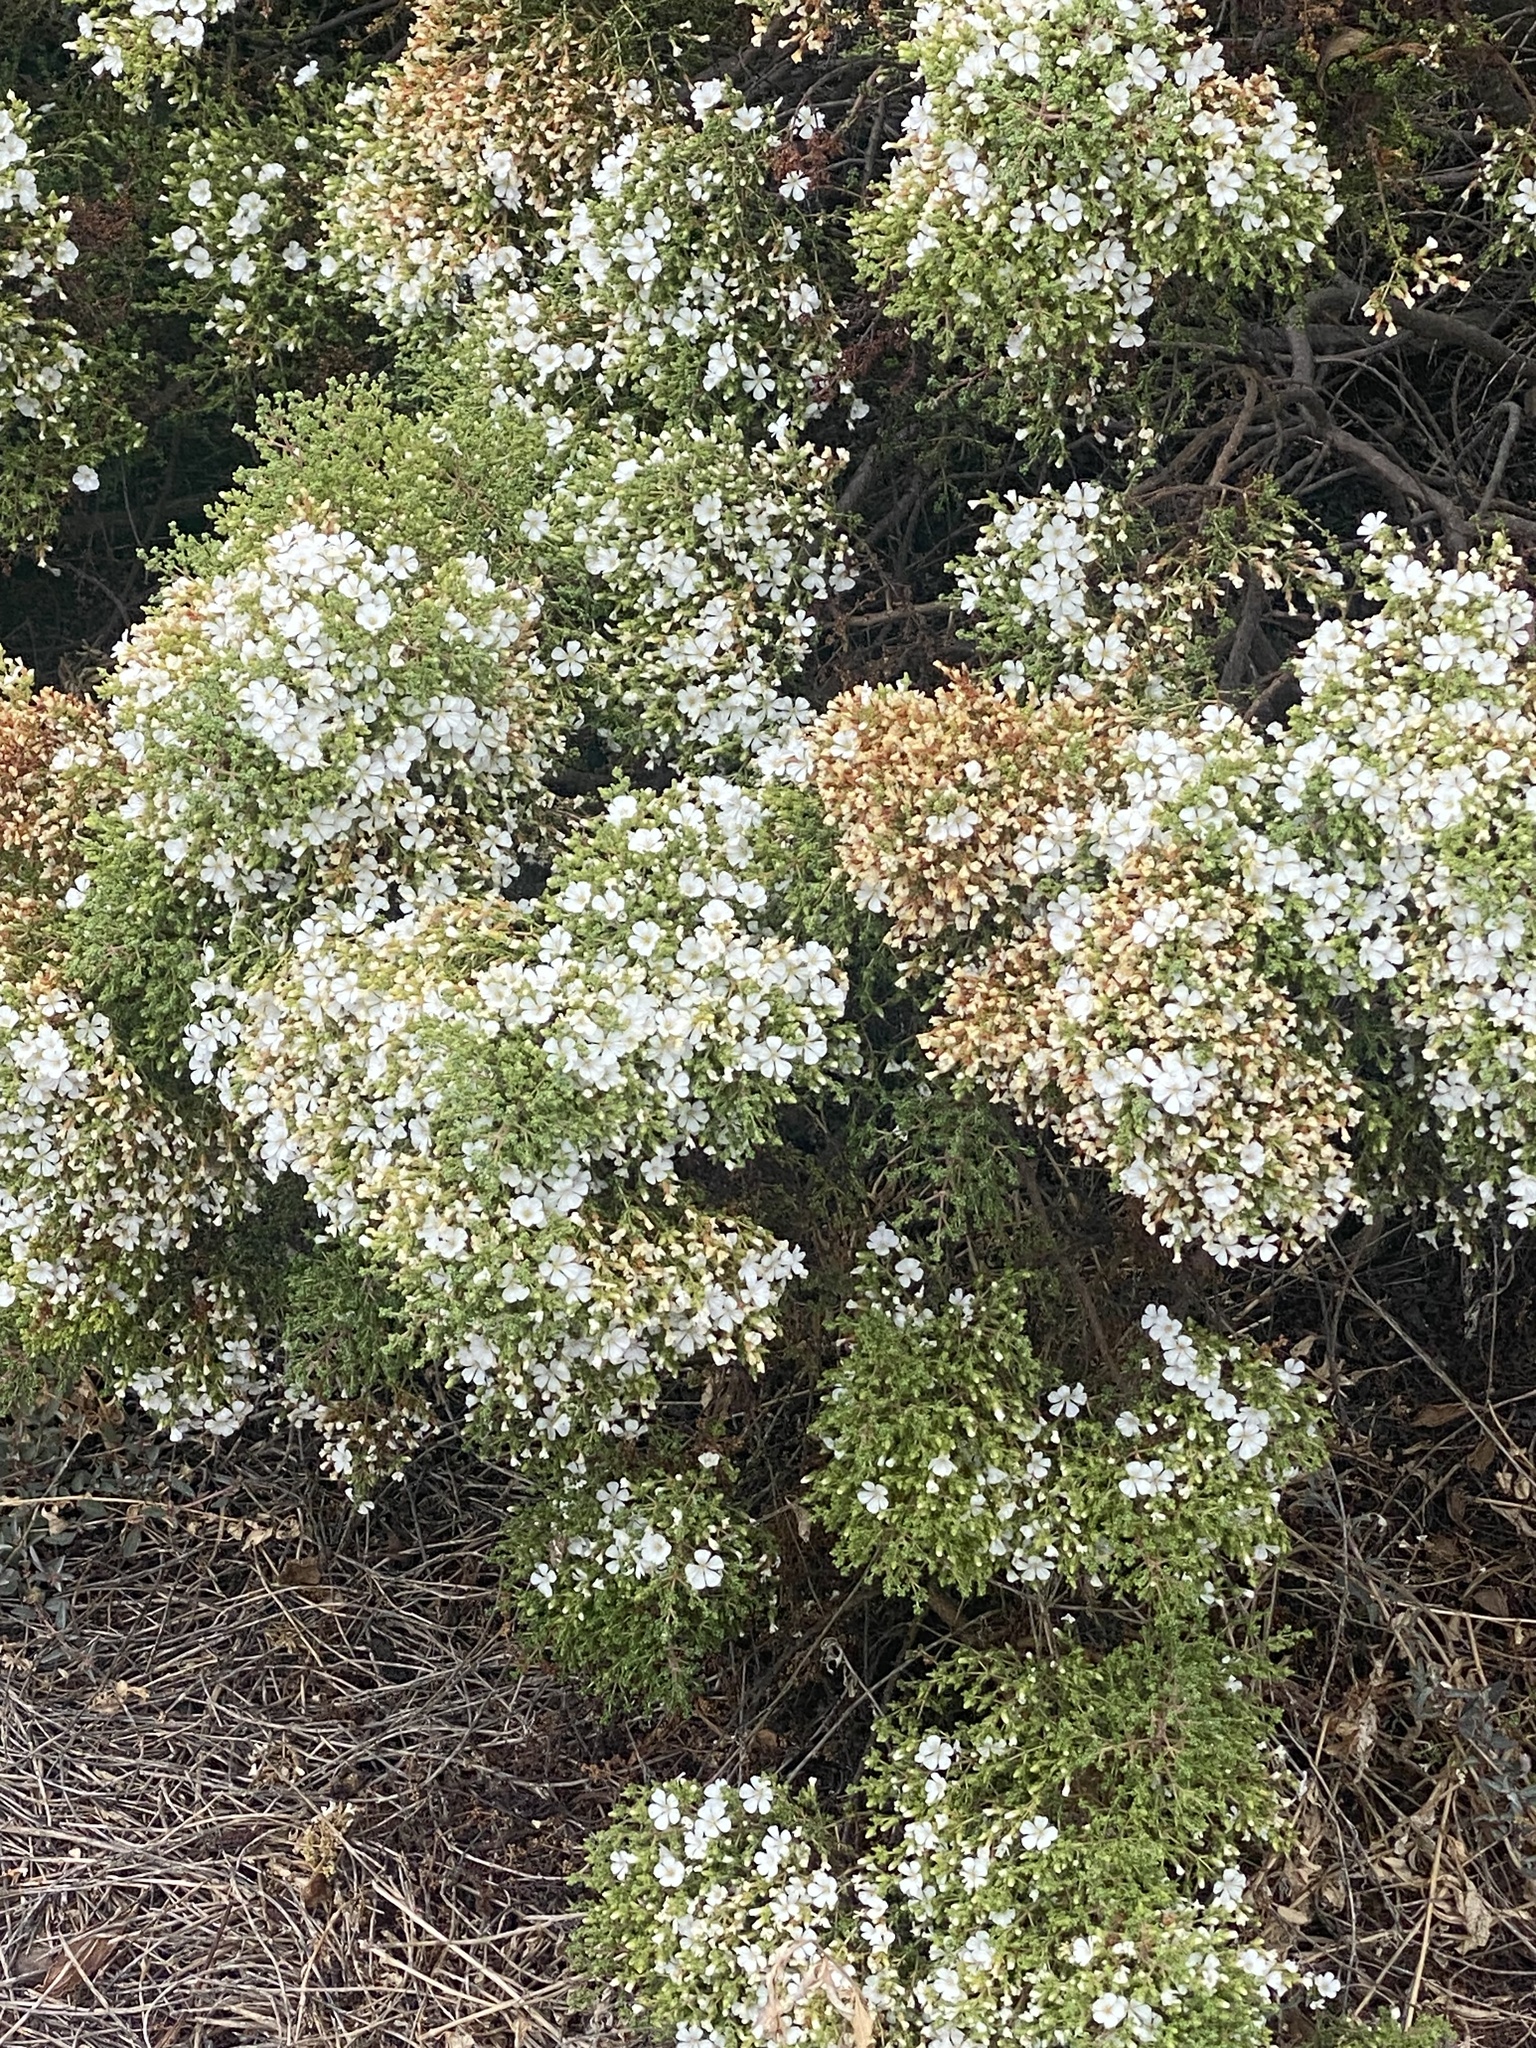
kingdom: Plantae
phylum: Tracheophyta
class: Magnoliopsida
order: Caryophyllales
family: Frankeniaceae
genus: Frankenia
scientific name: Frankenia portulacifolia
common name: St helena tea plant
